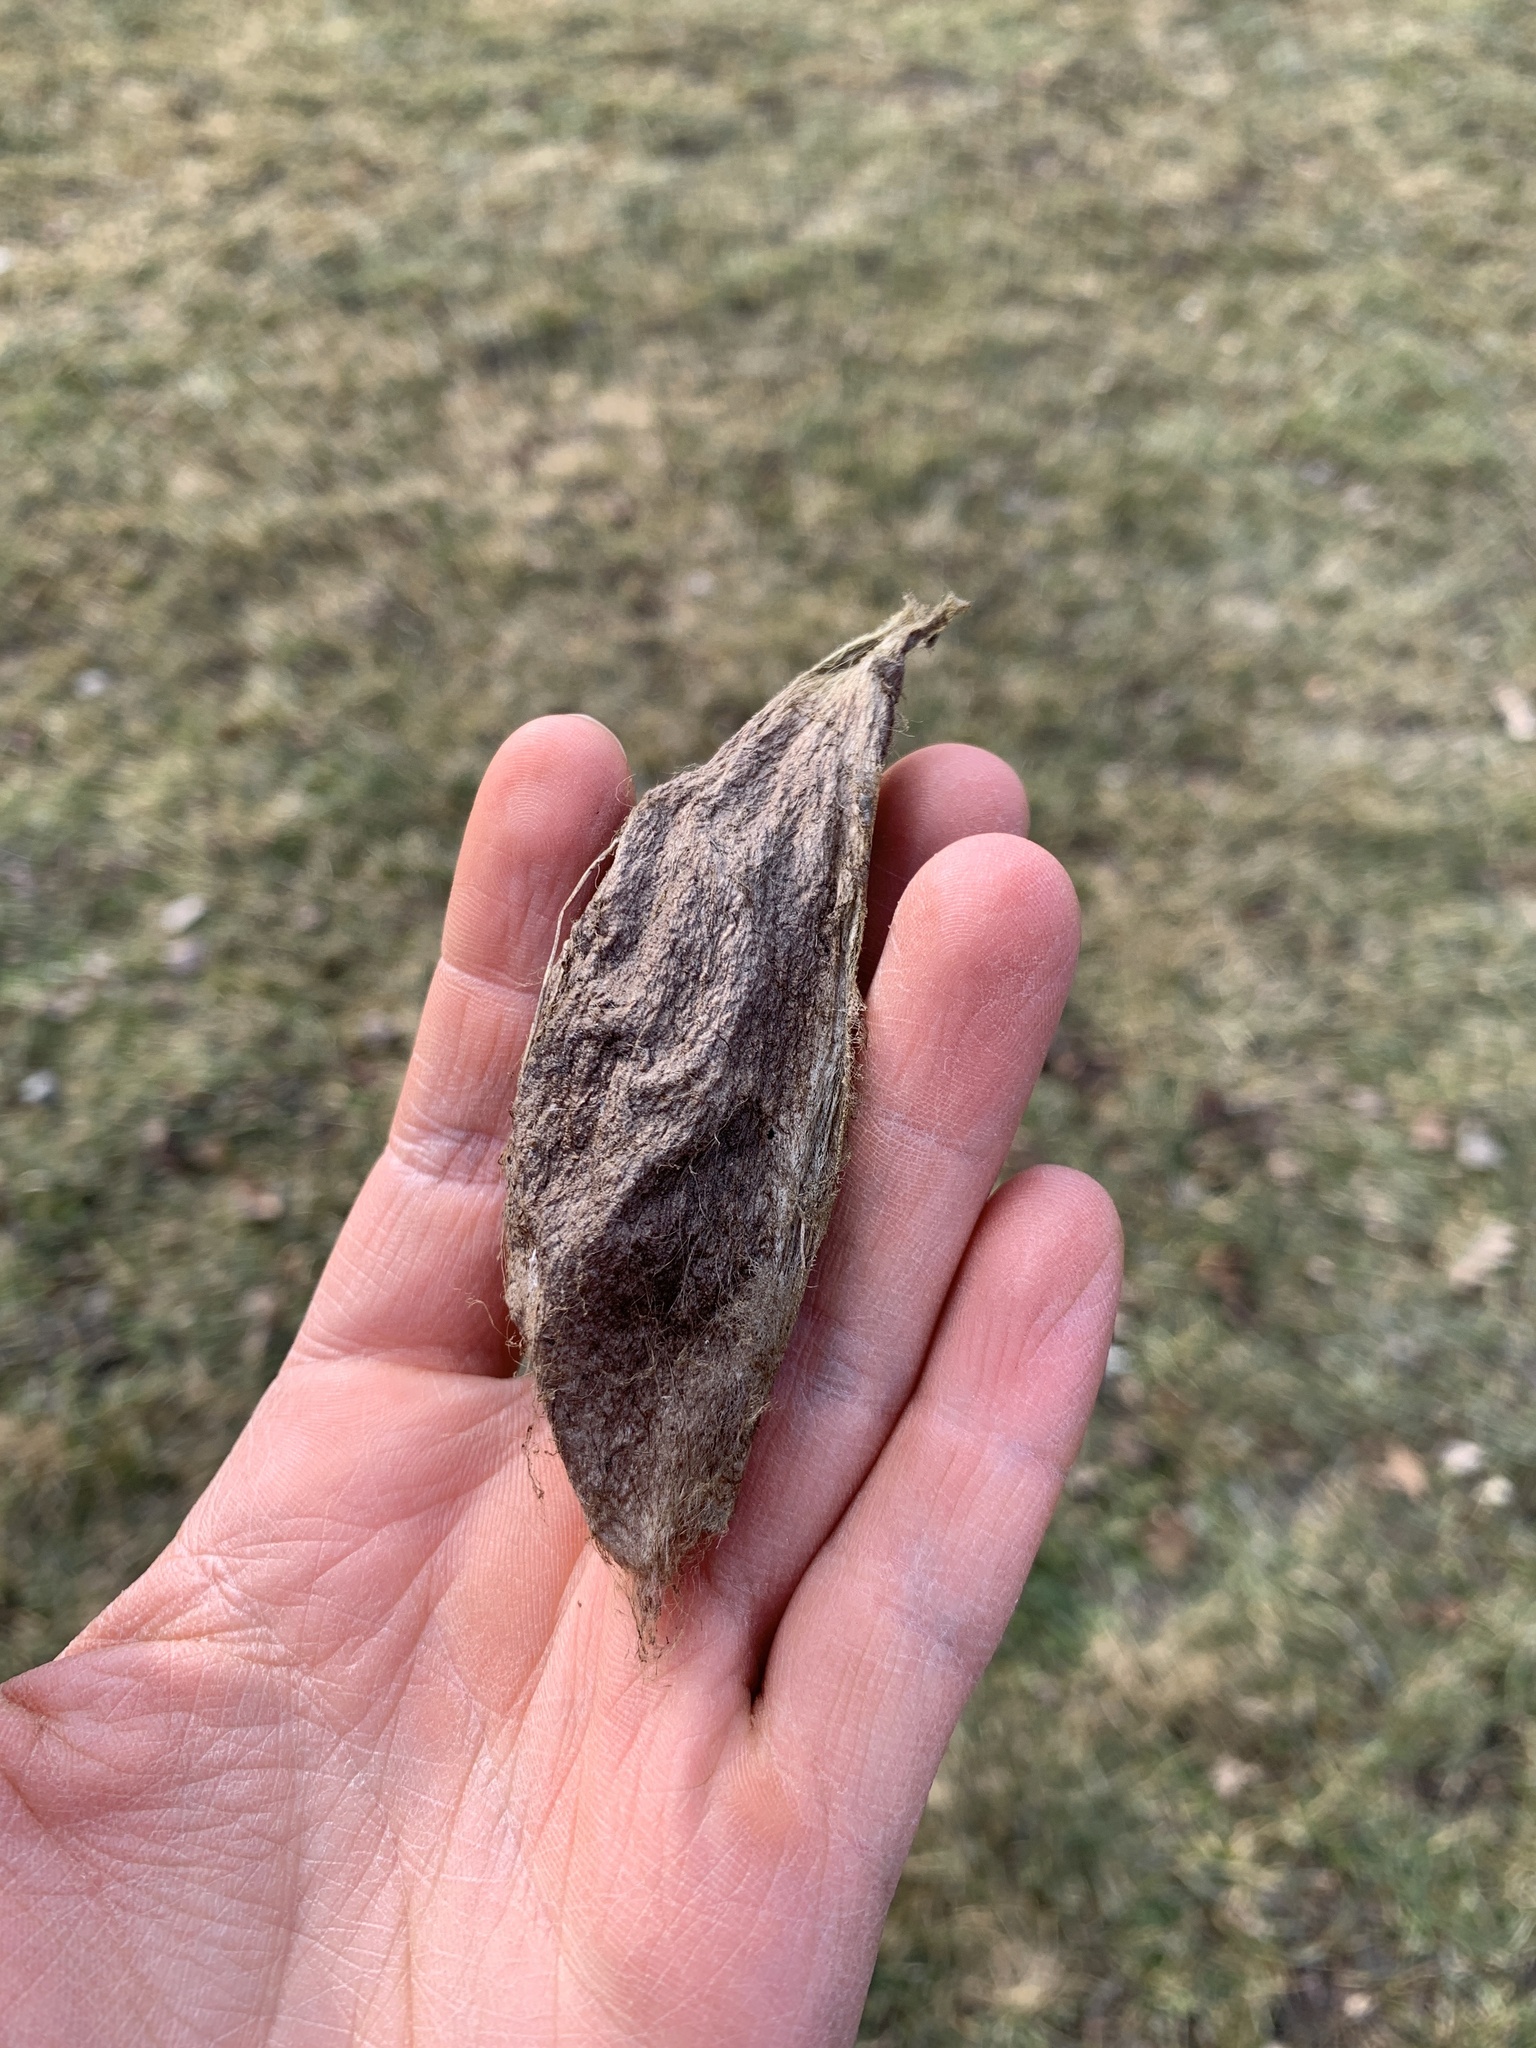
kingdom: Animalia
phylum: Arthropoda
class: Insecta
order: Lepidoptera
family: Saturniidae
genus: Hyalophora
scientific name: Hyalophora cecropia
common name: Cecropia silkmoth
